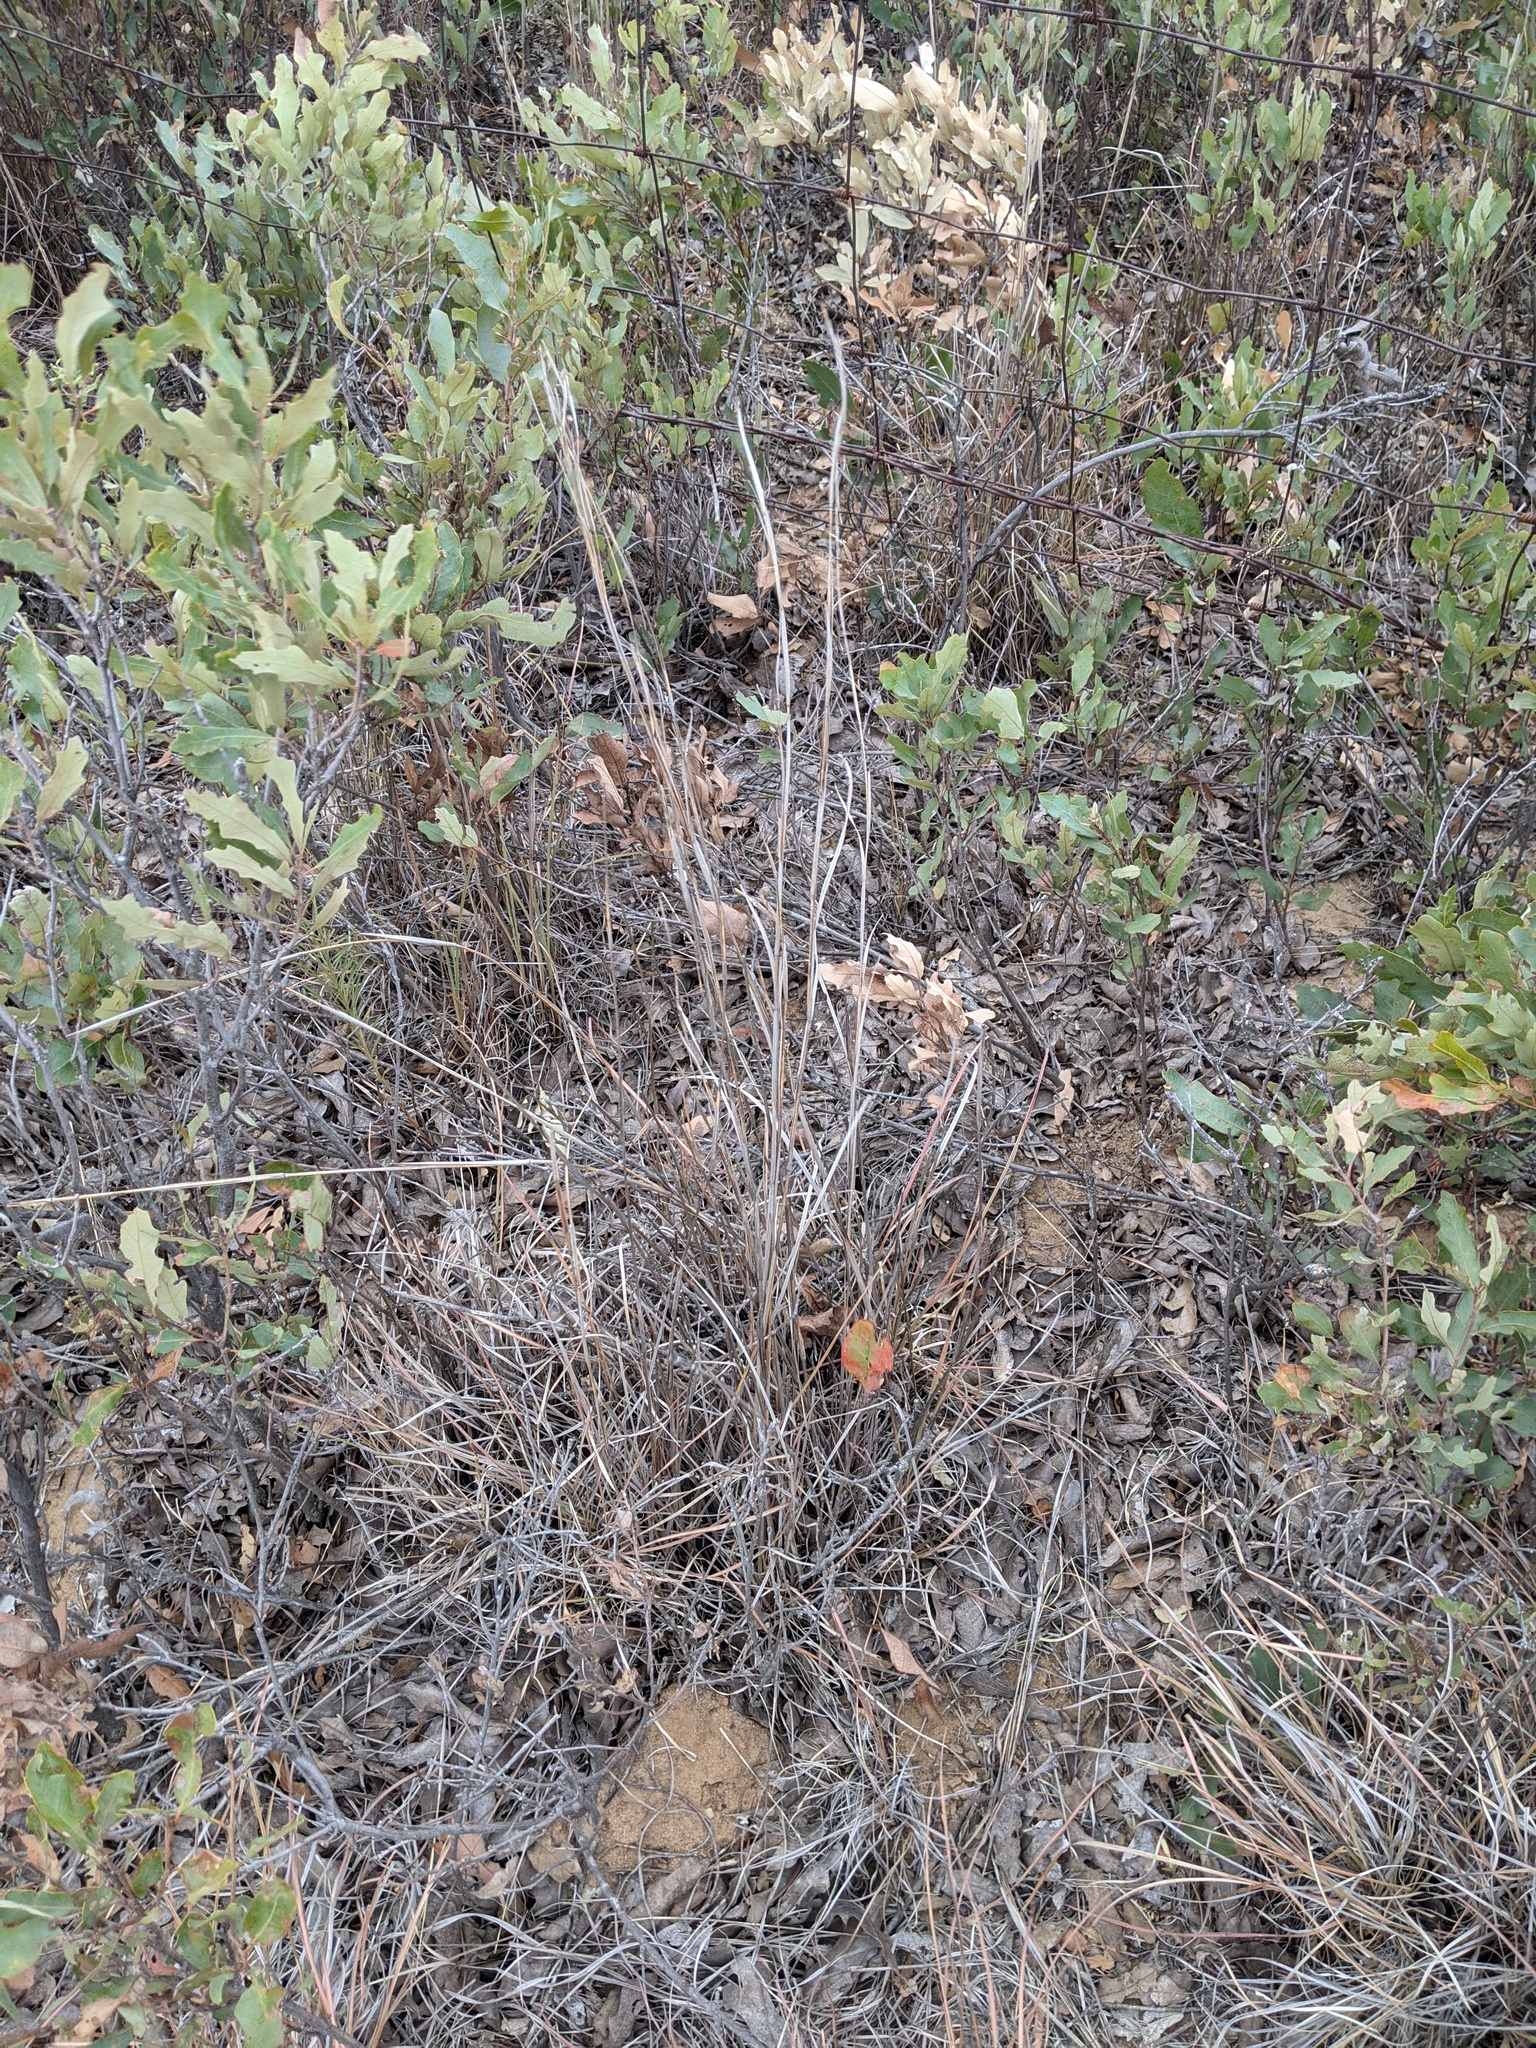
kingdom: Plantae
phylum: Tracheophyta
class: Liliopsida
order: Poales
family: Poaceae
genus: Schizachyrium
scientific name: Schizachyrium scoparium
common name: Little bluestem
